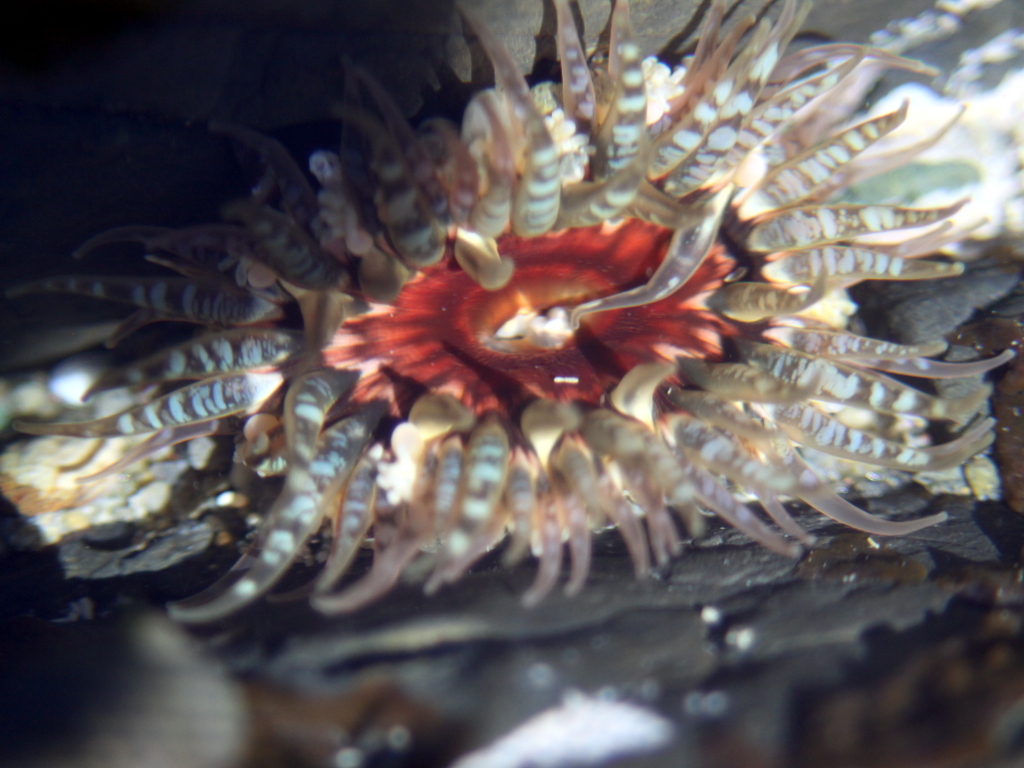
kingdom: Animalia
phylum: Cnidaria
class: Anthozoa
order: Actiniaria
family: Actiniidae
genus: Oulactis
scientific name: Oulactis muscosa
